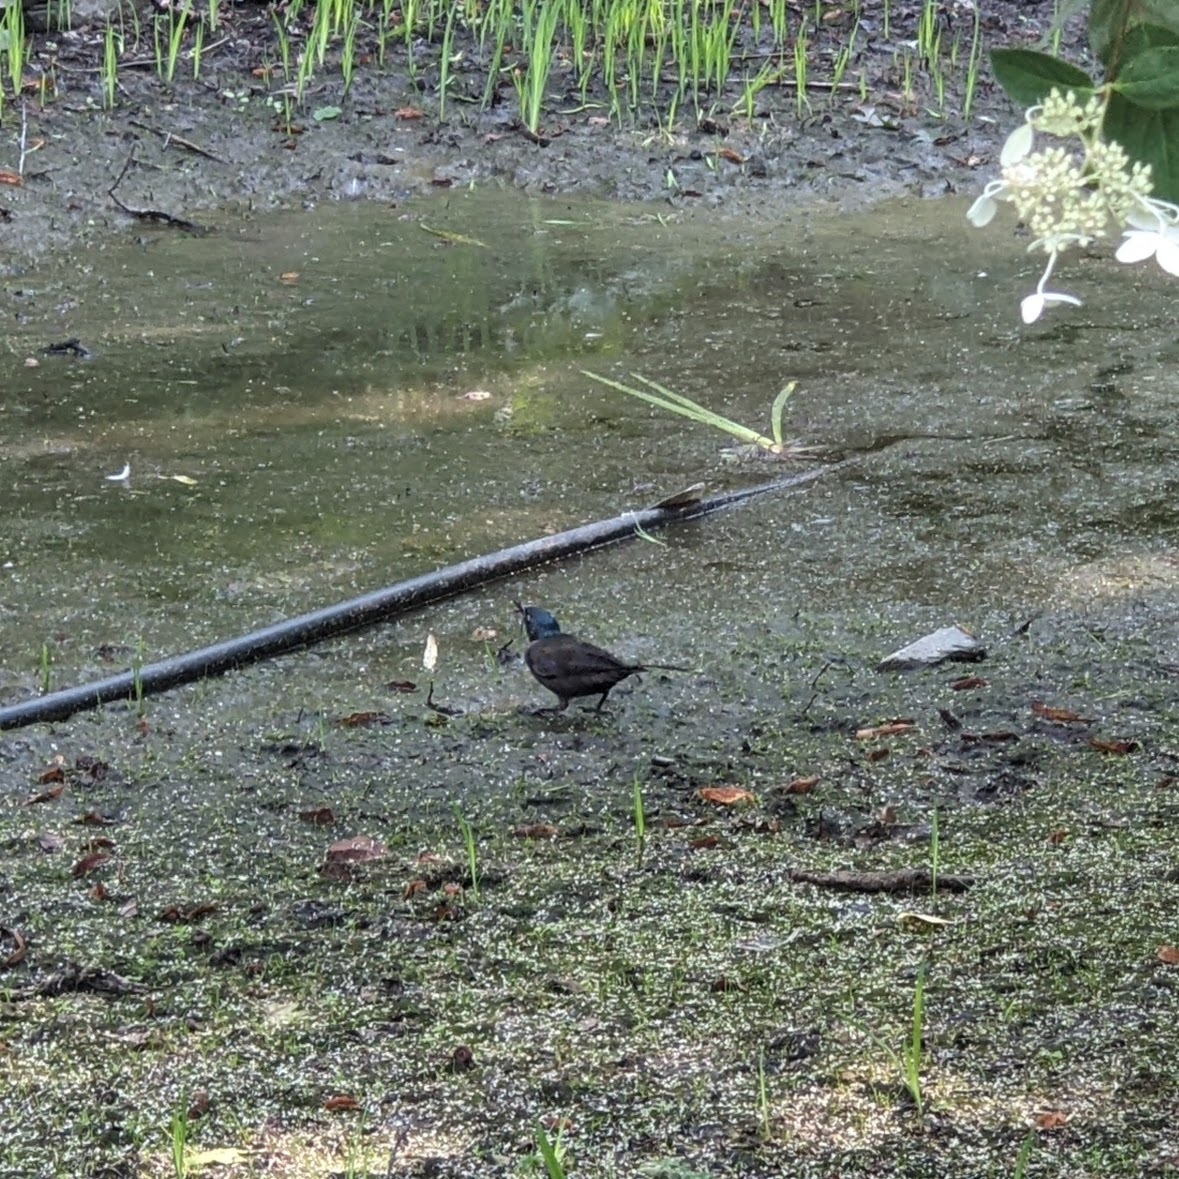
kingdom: Animalia
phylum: Chordata
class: Aves
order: Passeriformes
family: Icteridae
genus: Quiscalus
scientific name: Quiscalus quiscula
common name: Common grackle
